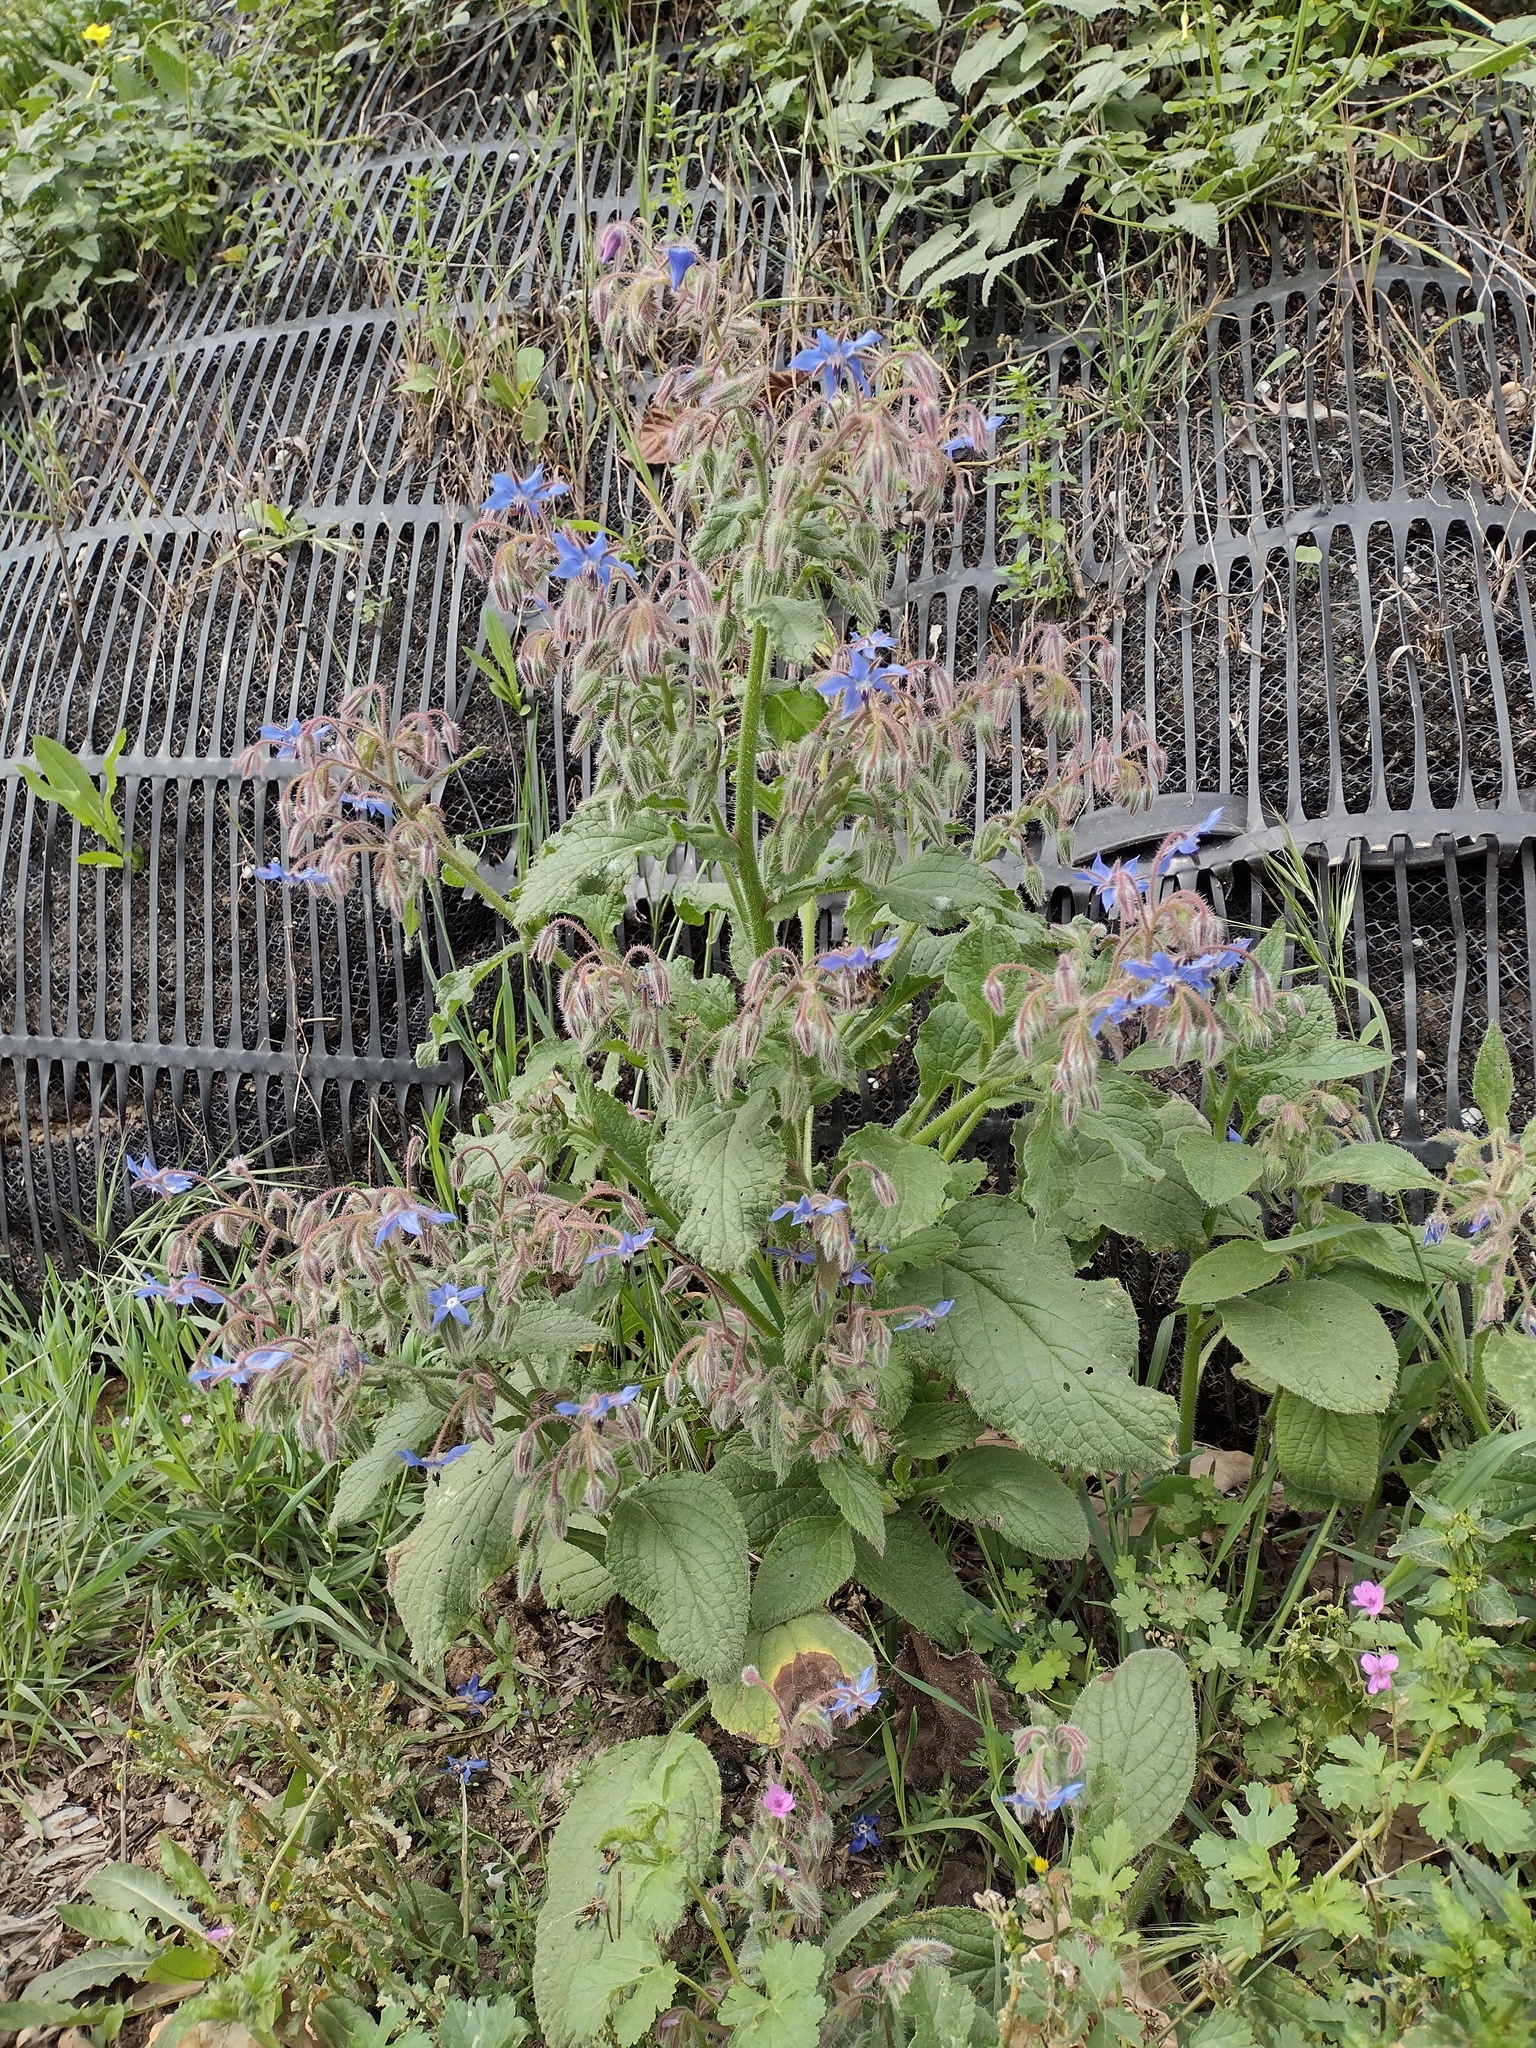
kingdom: Plantae
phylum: Tracheophyta
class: Magnoliopsida
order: Boraginales
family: Boraginaceae
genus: Borago
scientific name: Borago officinalis
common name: Borage
